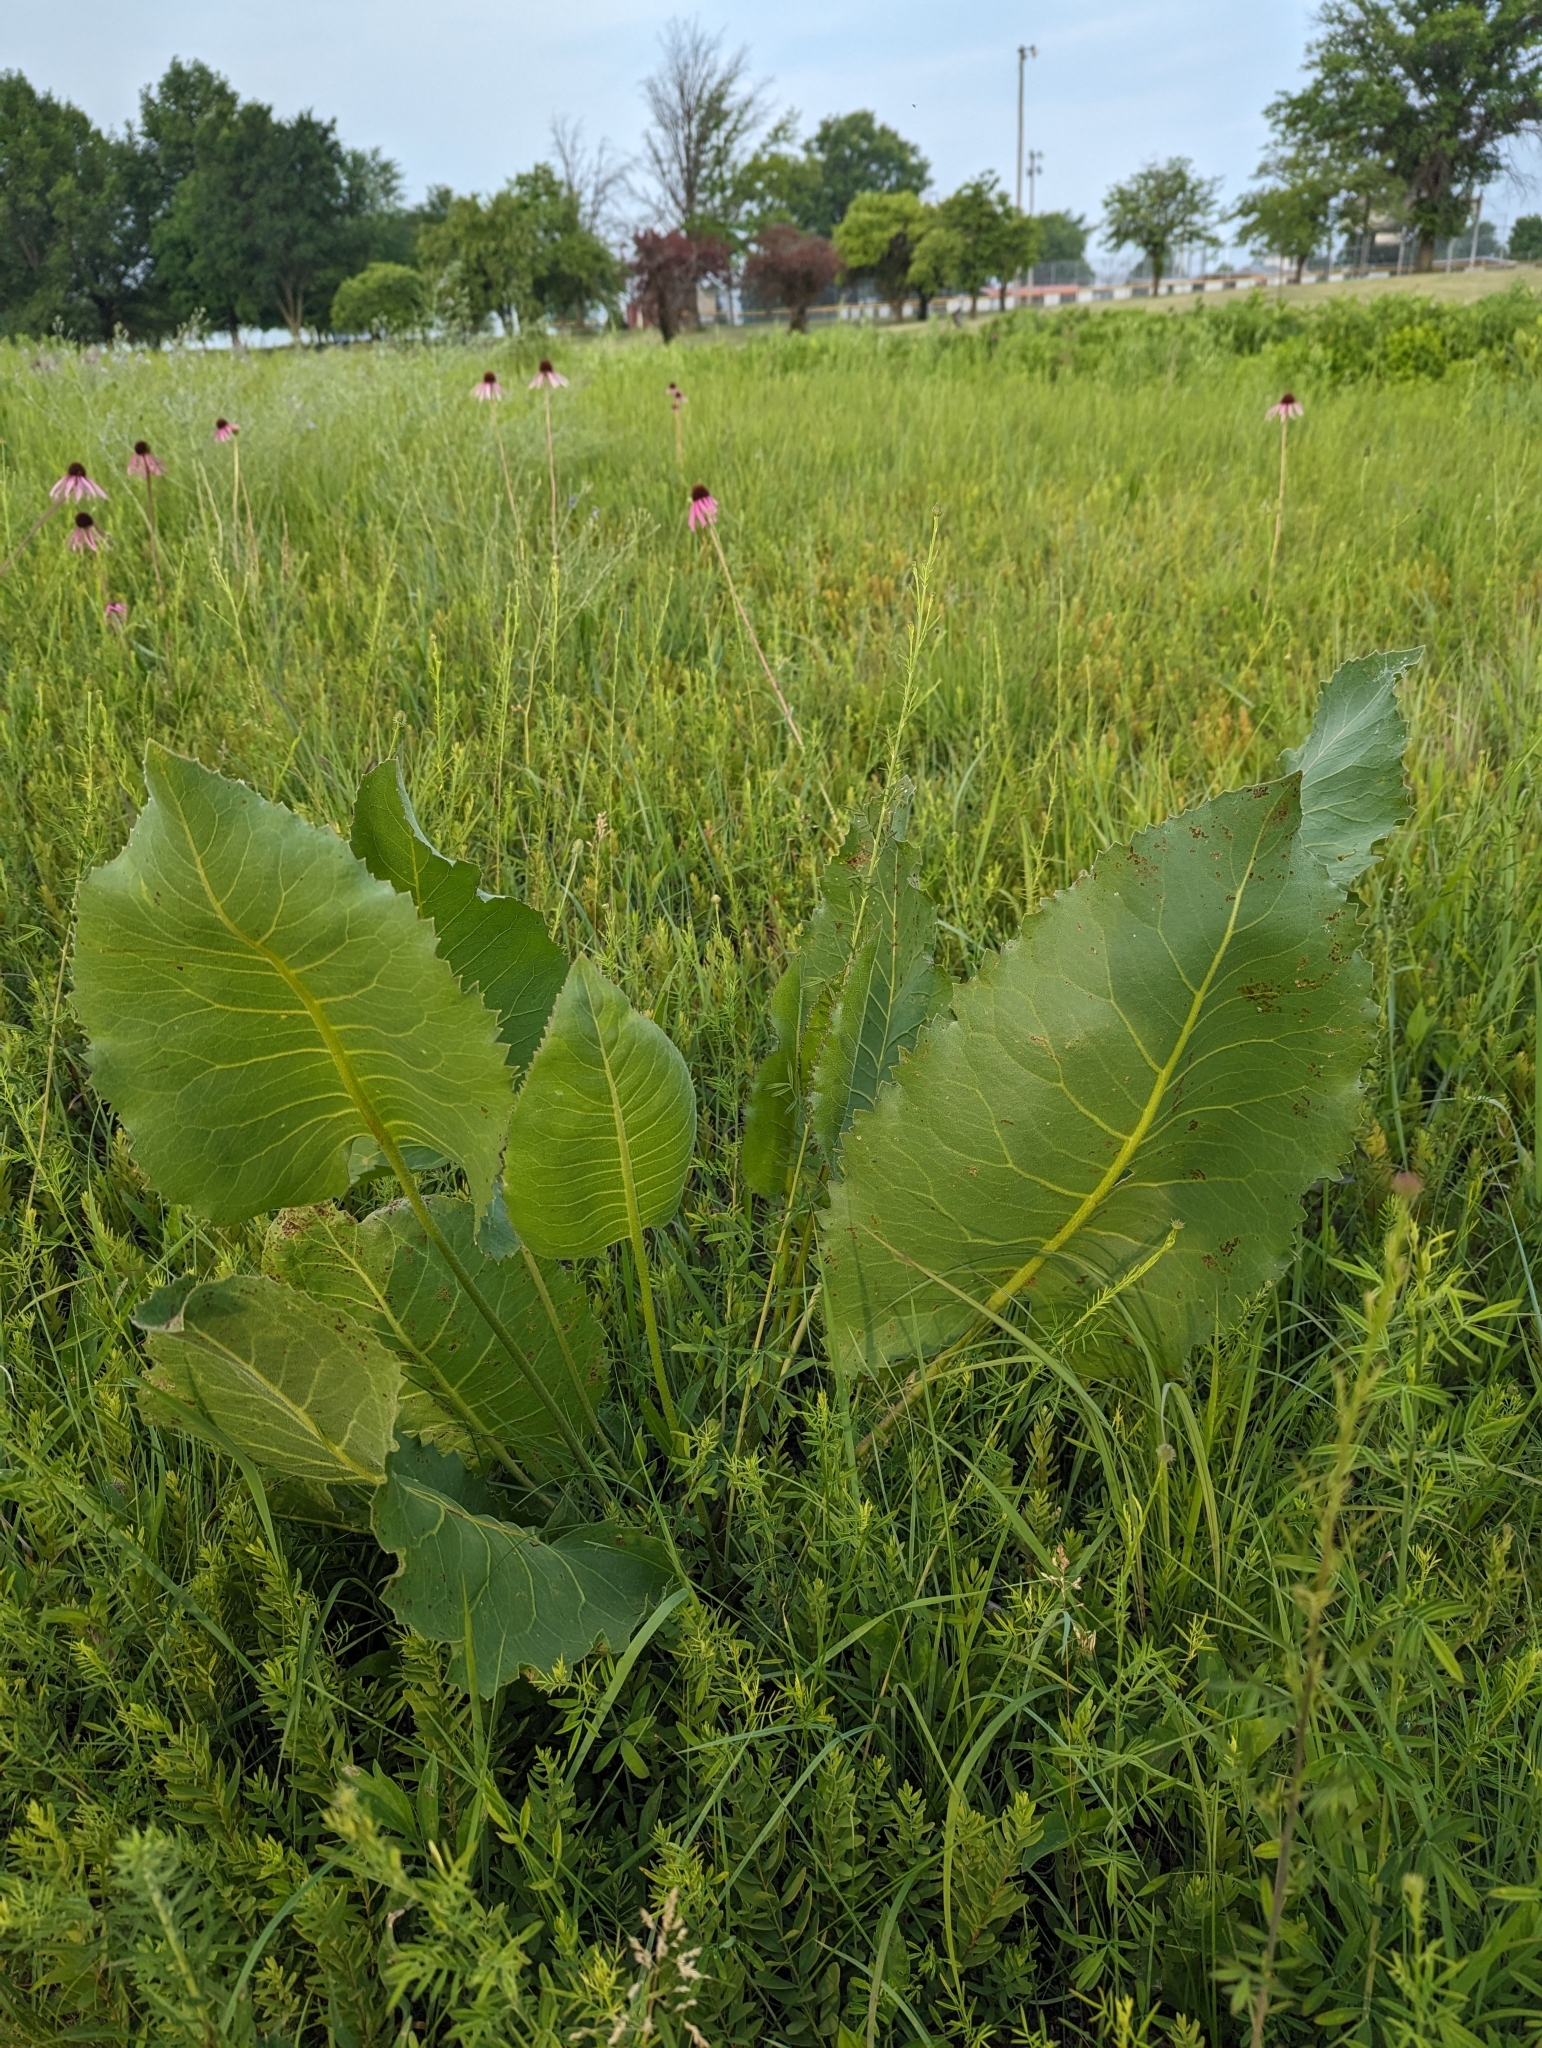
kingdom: Plantae
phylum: Tracheophyta
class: Magnoliopsida
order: Asterales
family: Asteraceae
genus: Silphium
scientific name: Silphium terebinthinaceum
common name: Basal-leaf rosinweed
